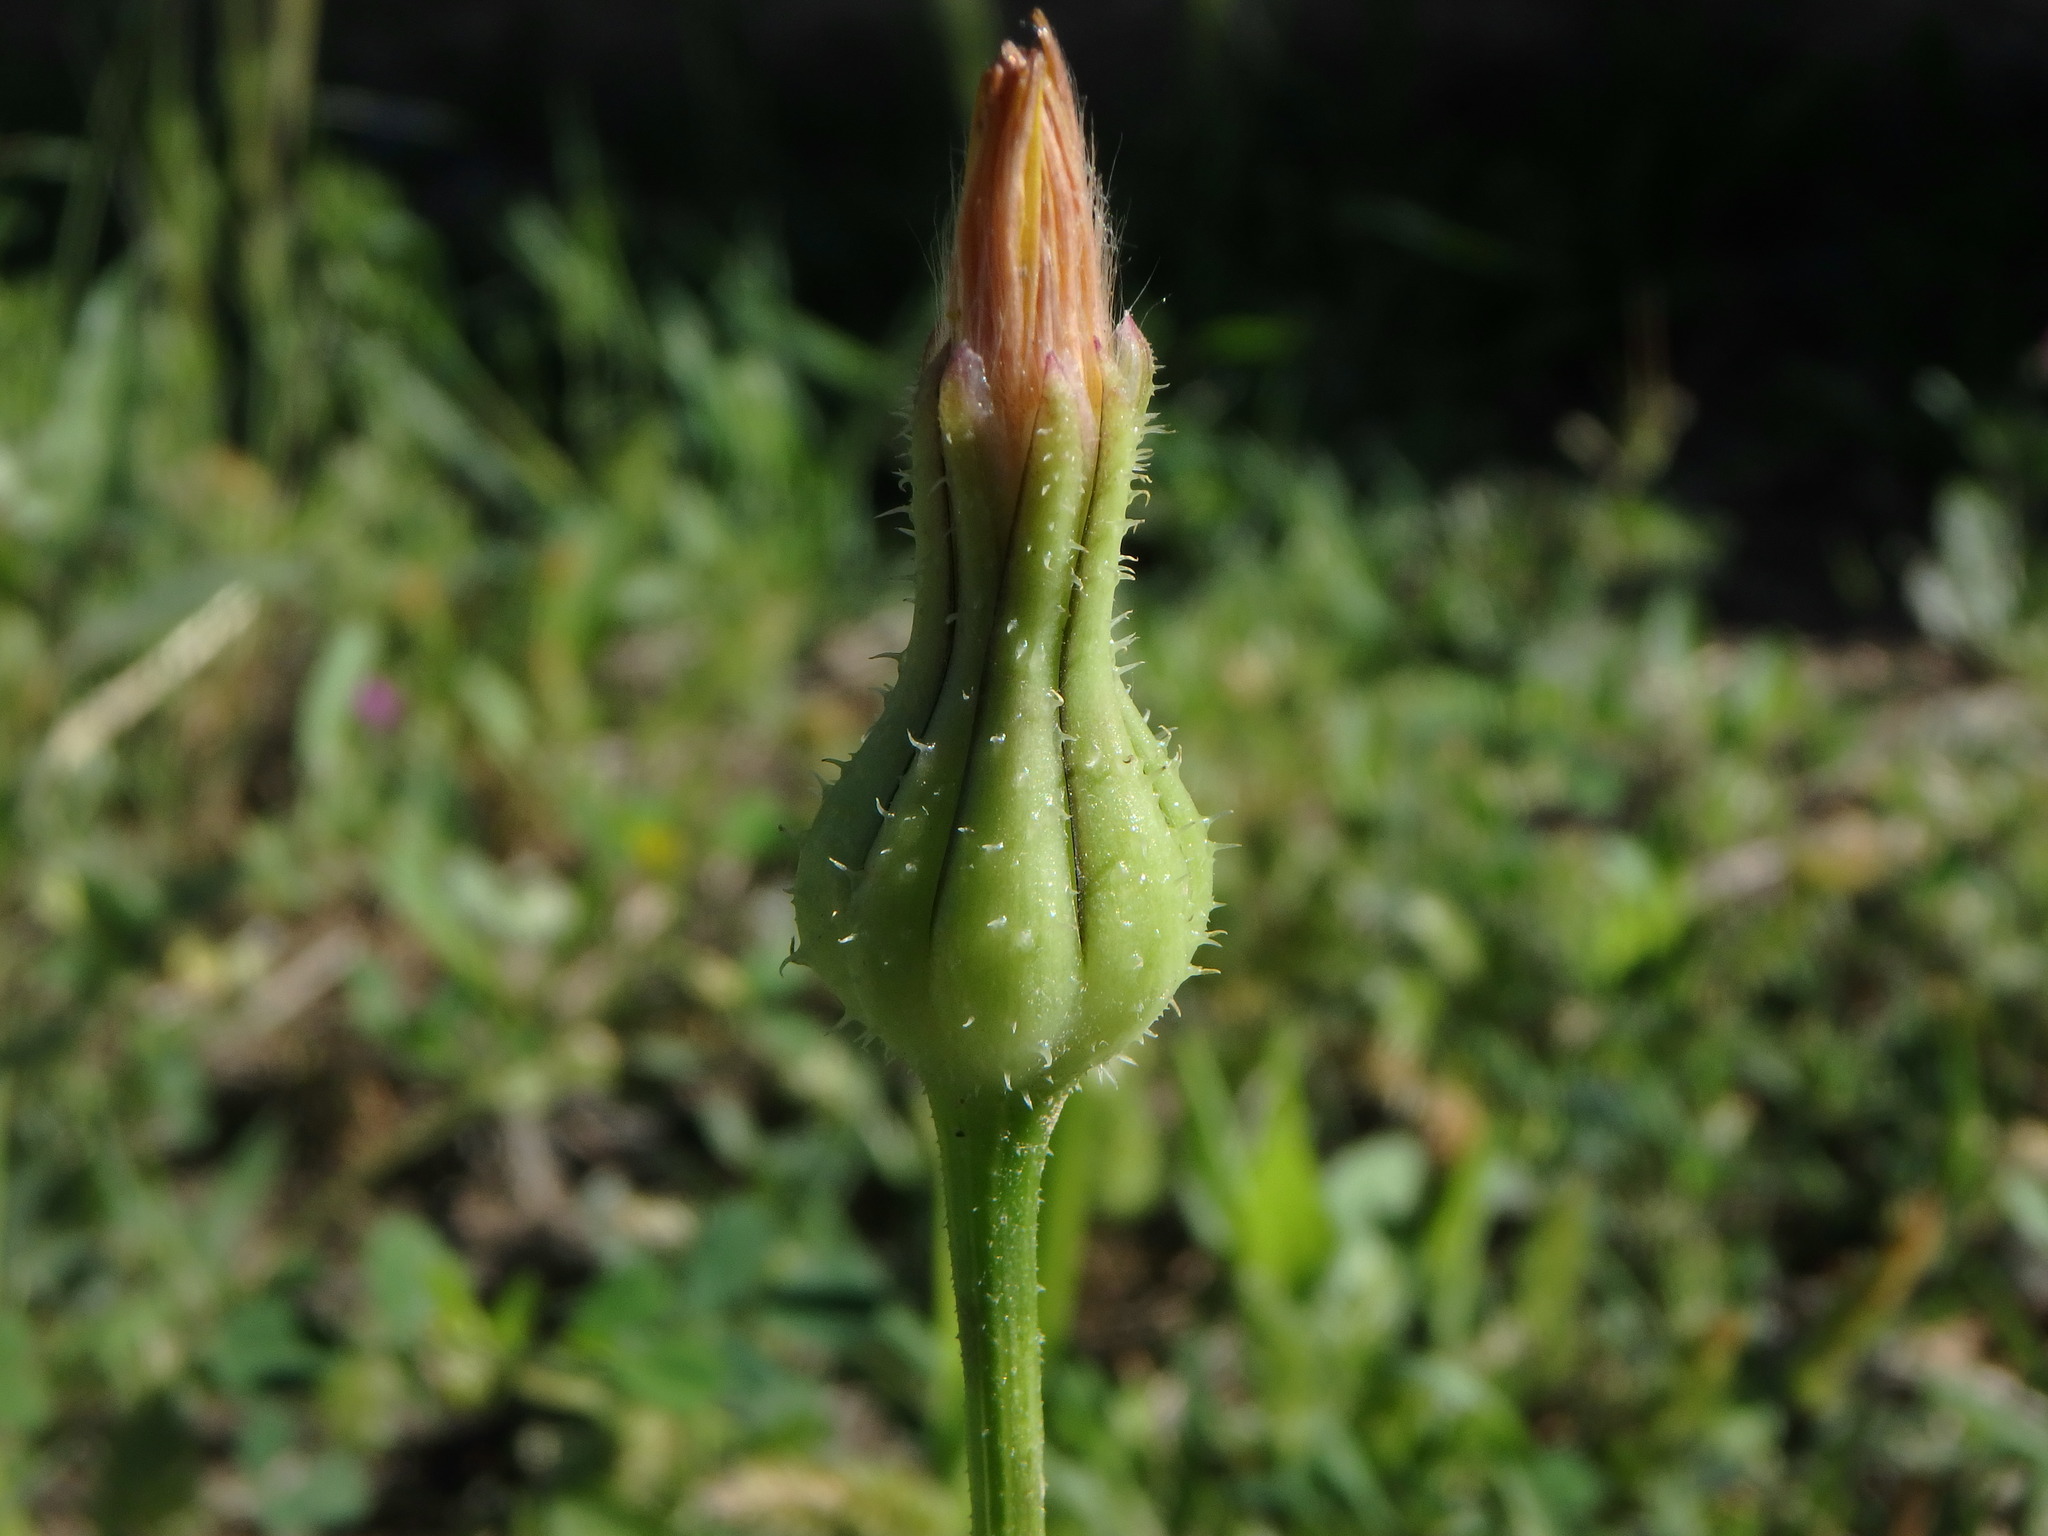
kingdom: Plantae
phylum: Tracheophyta
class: Magnoliopsida
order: Asterales
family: Asteraceae
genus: Urospermum
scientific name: Urospermum picroides
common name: False hawkbit
